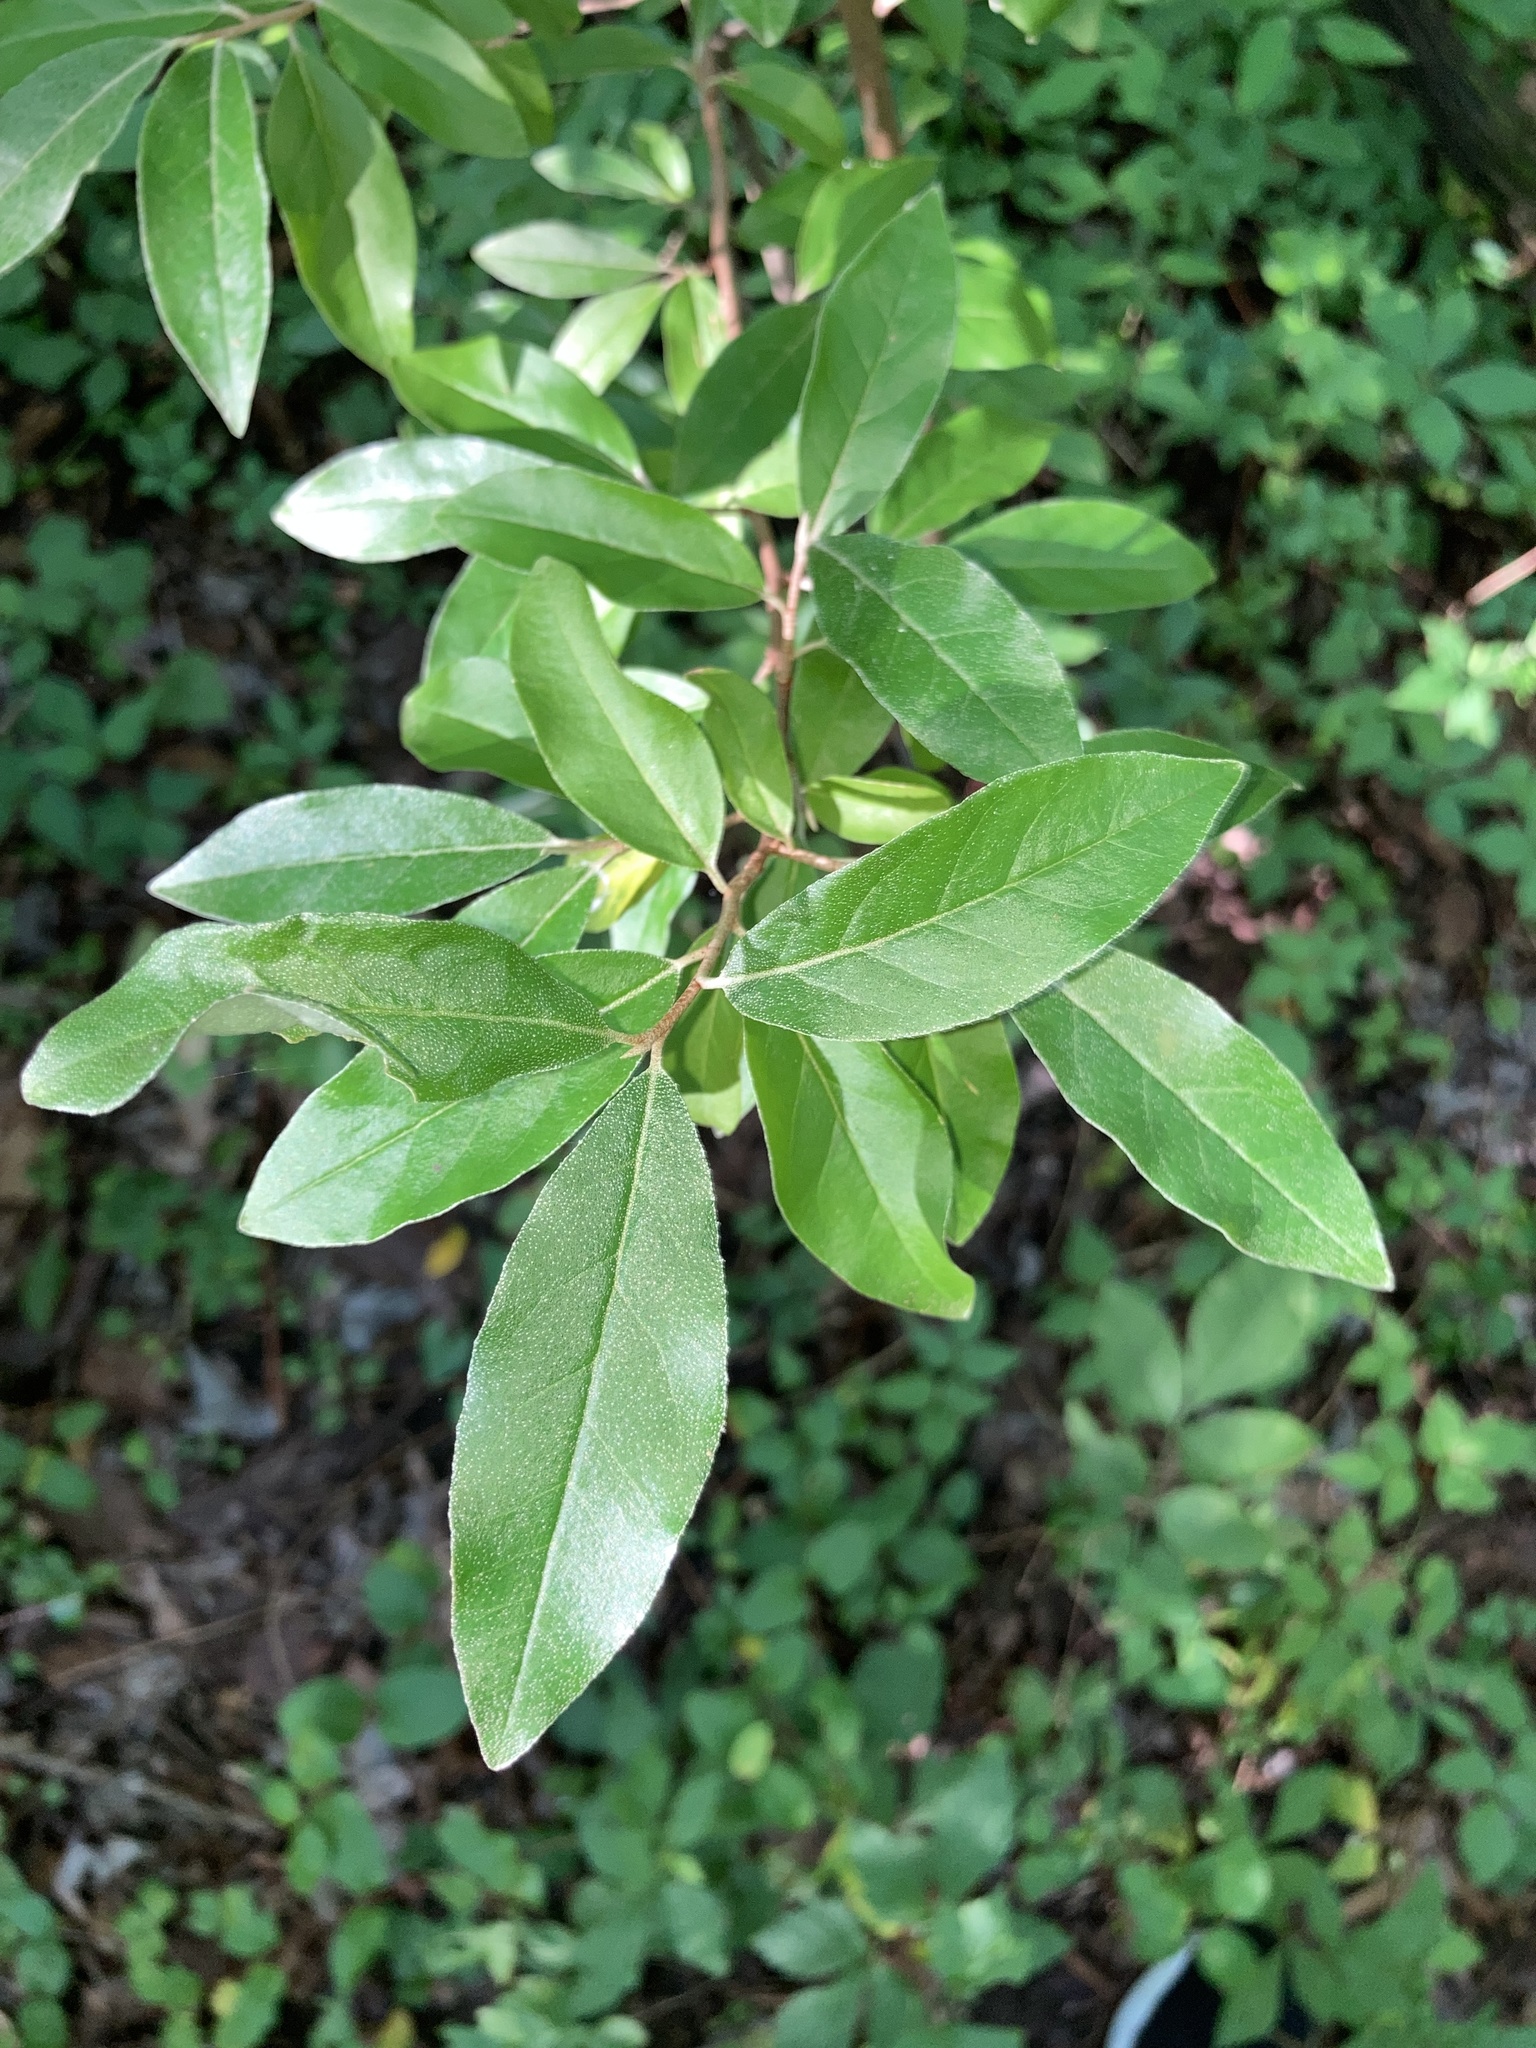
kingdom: Plantae
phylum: Tracheophyta
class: Magnoliopsida
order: Rosales
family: Elaeagnaceae
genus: Elaeagnus
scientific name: Elaeagnus umbellata
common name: Autumn olive
